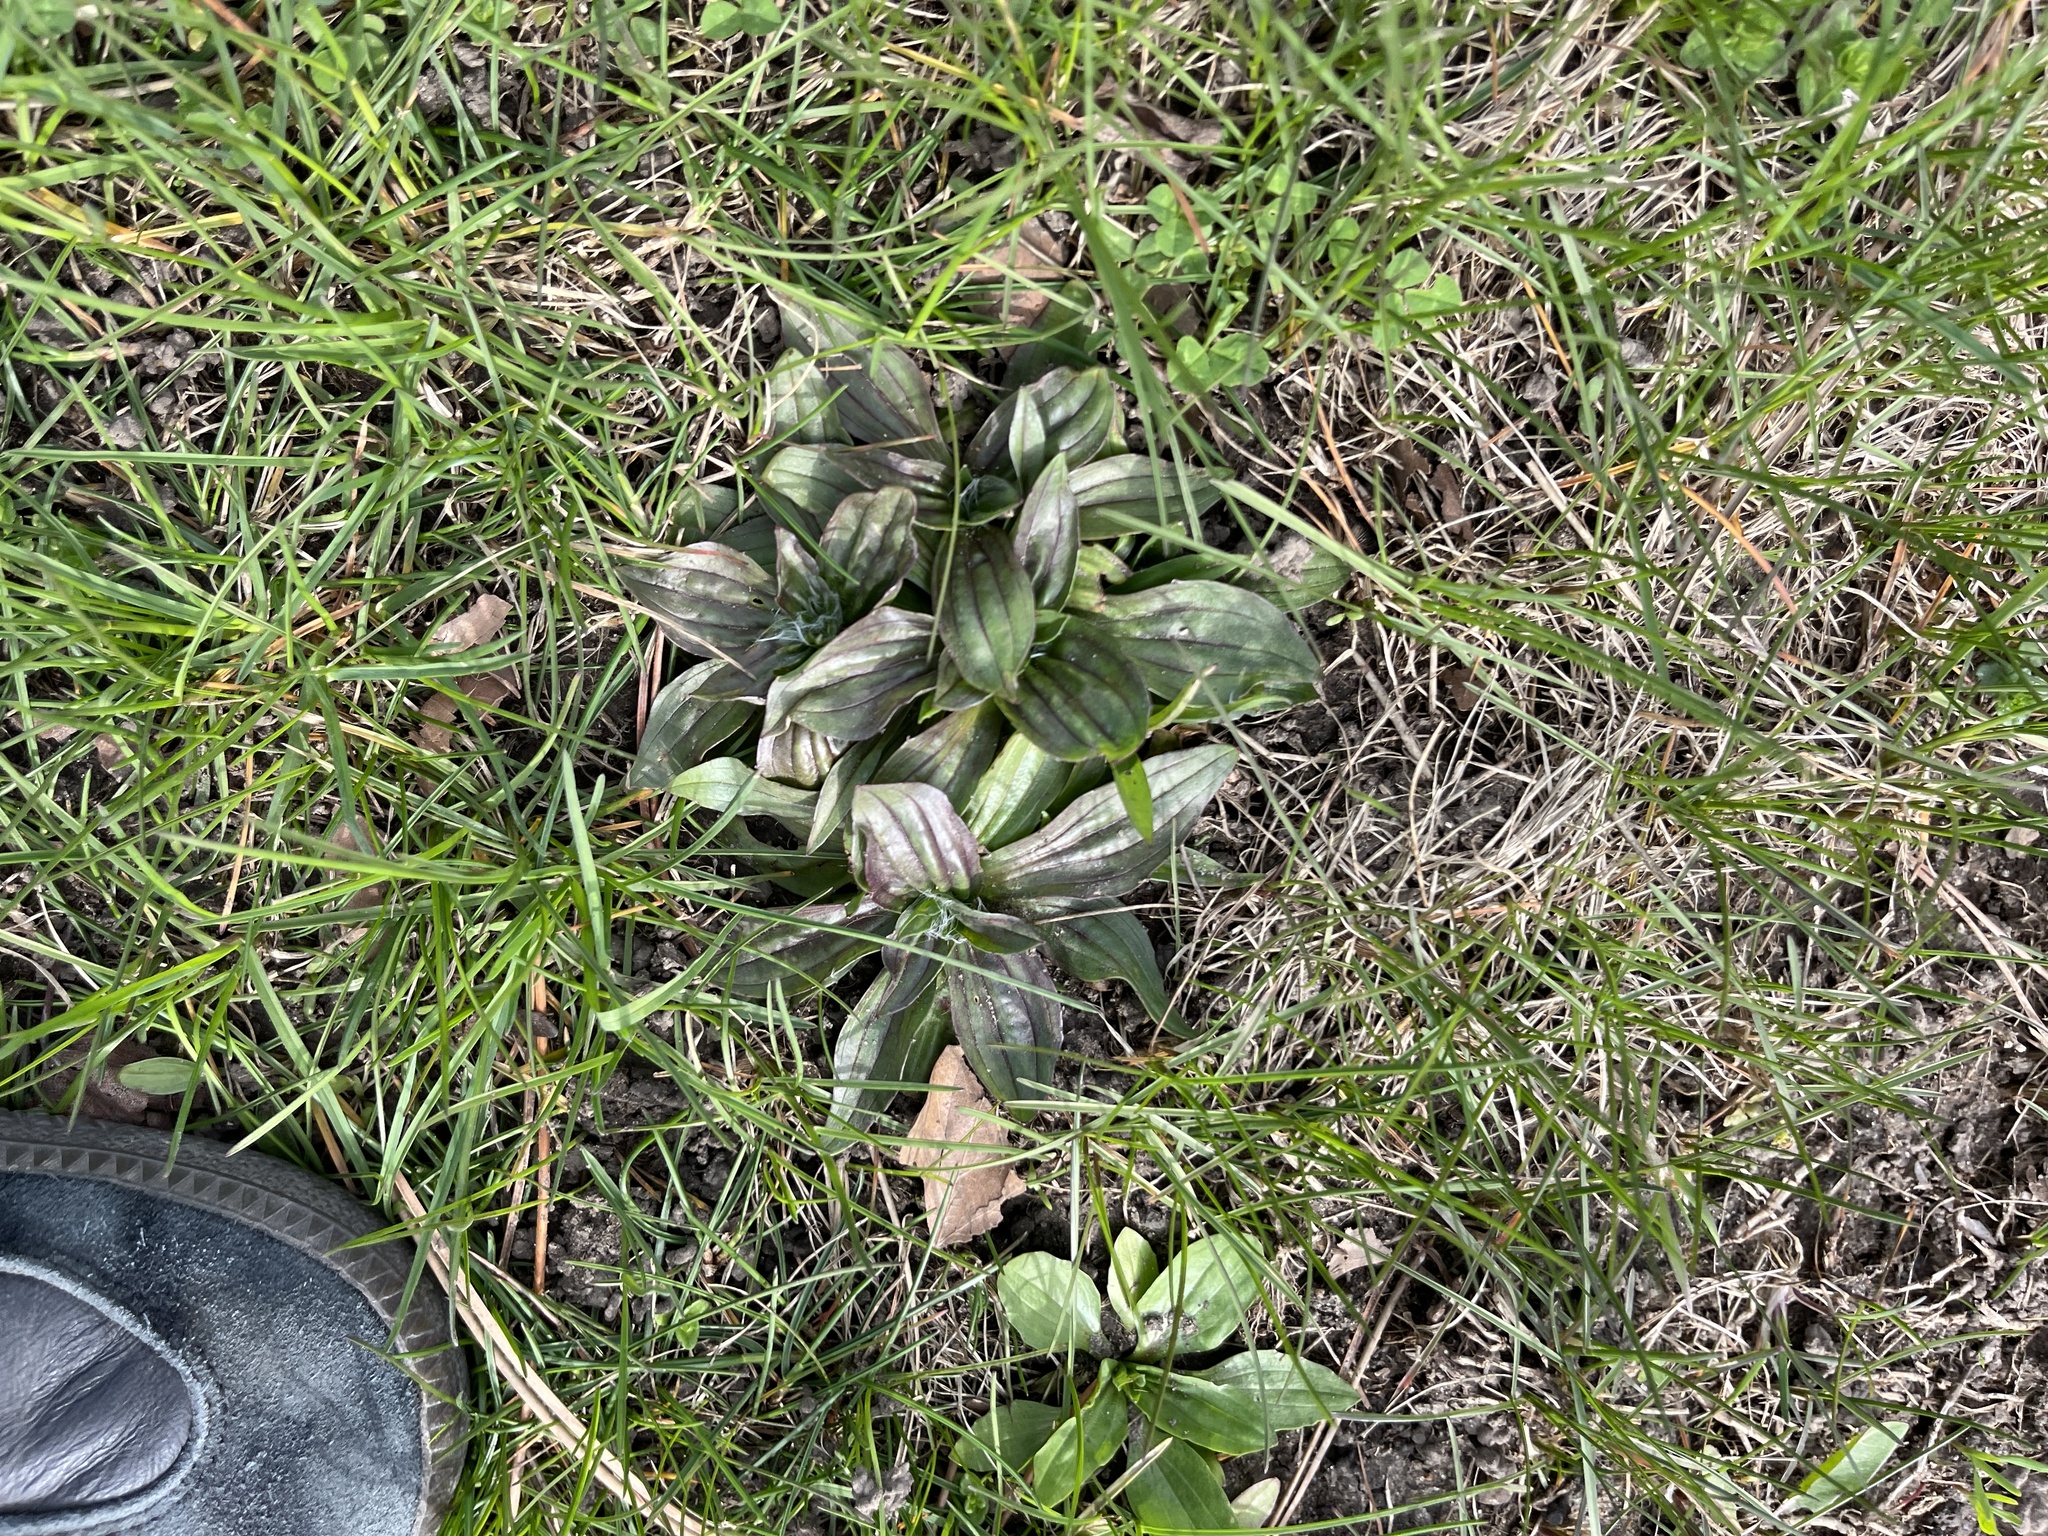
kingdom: Plantae
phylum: Tracheophyta
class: Magnoliopsida
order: Lamiales
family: Plantaginaceae
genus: Plantago
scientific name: Plantago lanceolata
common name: Ribwort plantain
